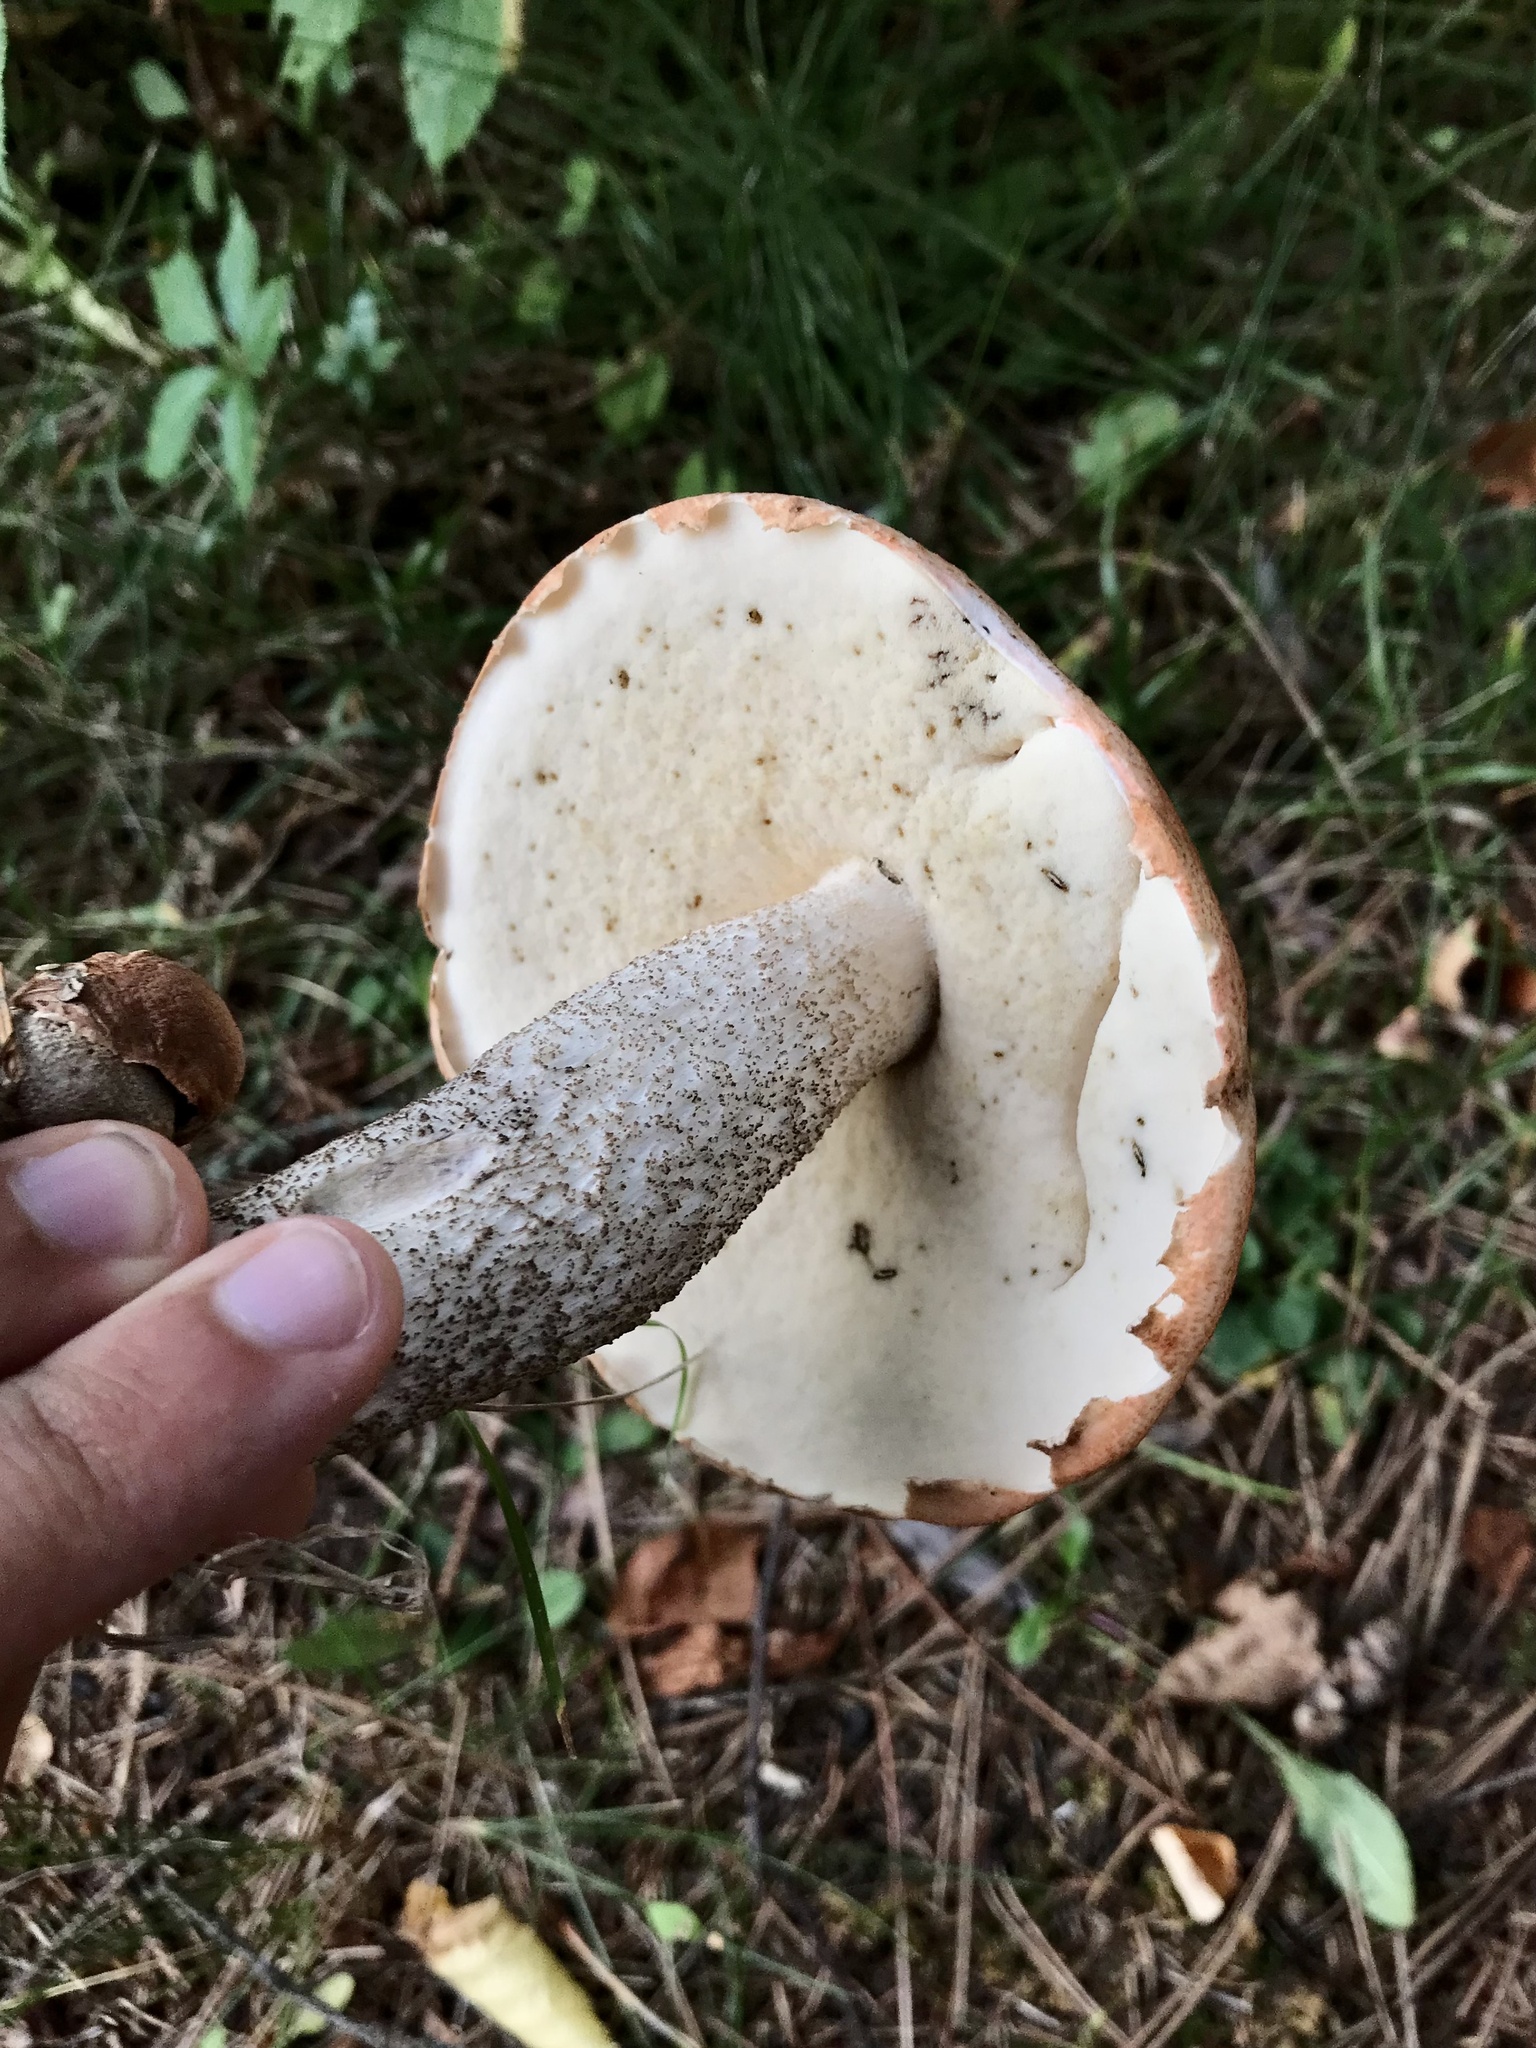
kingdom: Fungi
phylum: Basidiomycota
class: Agaricomycetes
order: Boletales
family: Boletaceae
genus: Leccinum
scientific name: Leccinum aurantiacum
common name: Orange bolete
